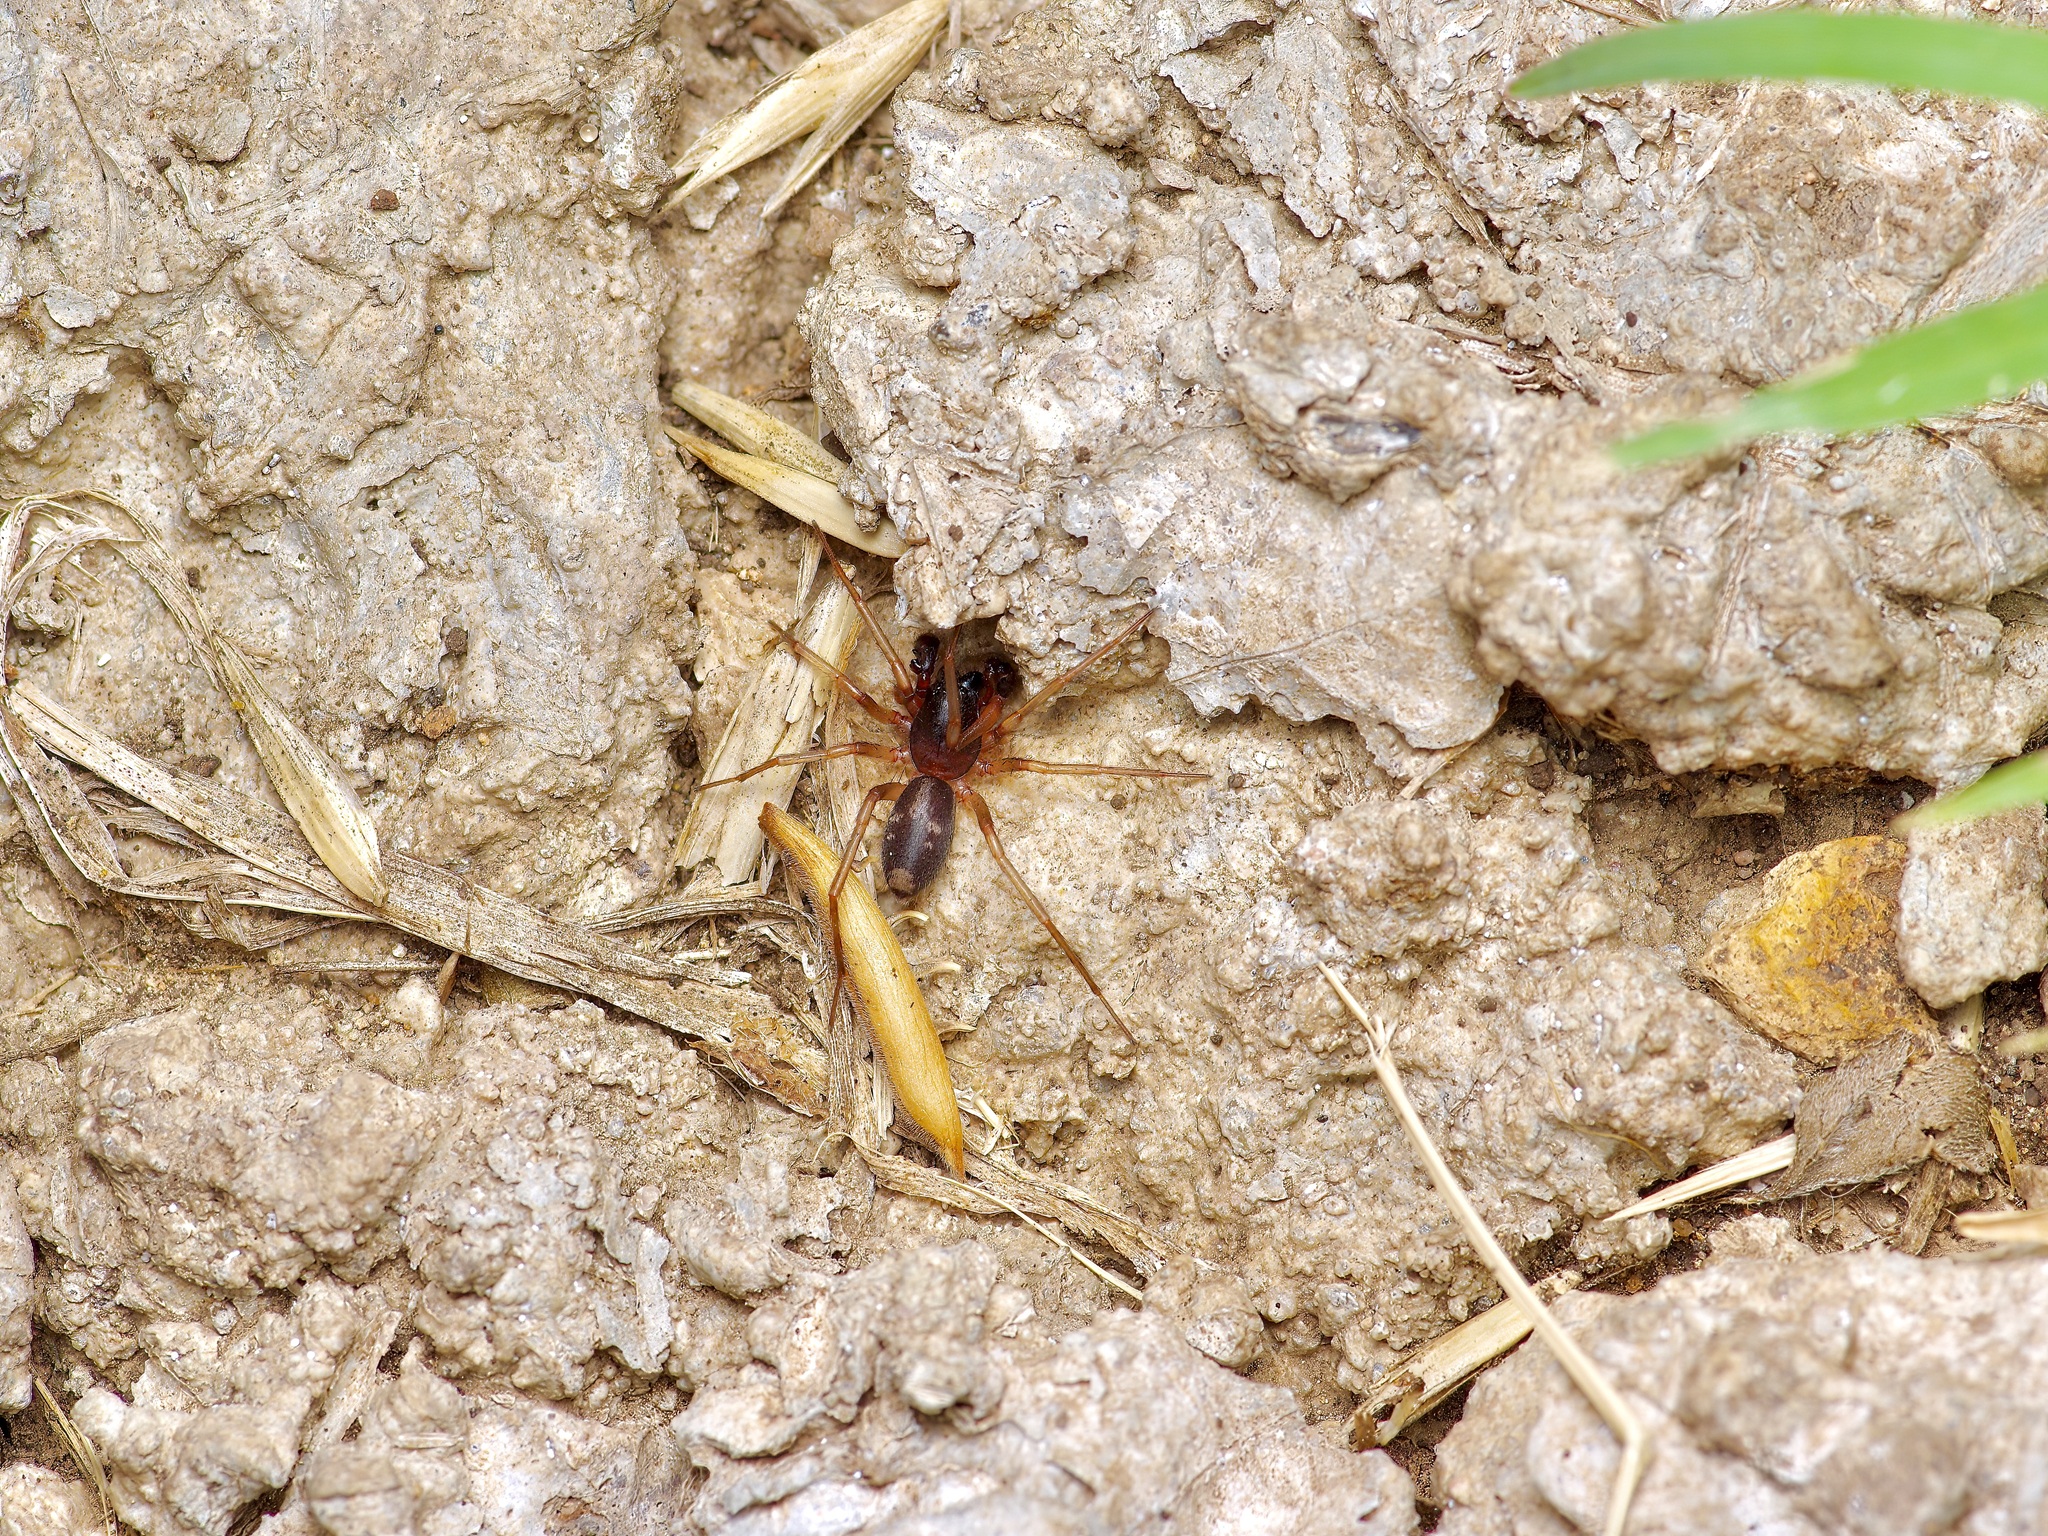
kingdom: Animalia
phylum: Arthropoda
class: Arachnida
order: Araneae
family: Corinnidae
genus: Falconina
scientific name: Falconina gracilis
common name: Antmimic spider
